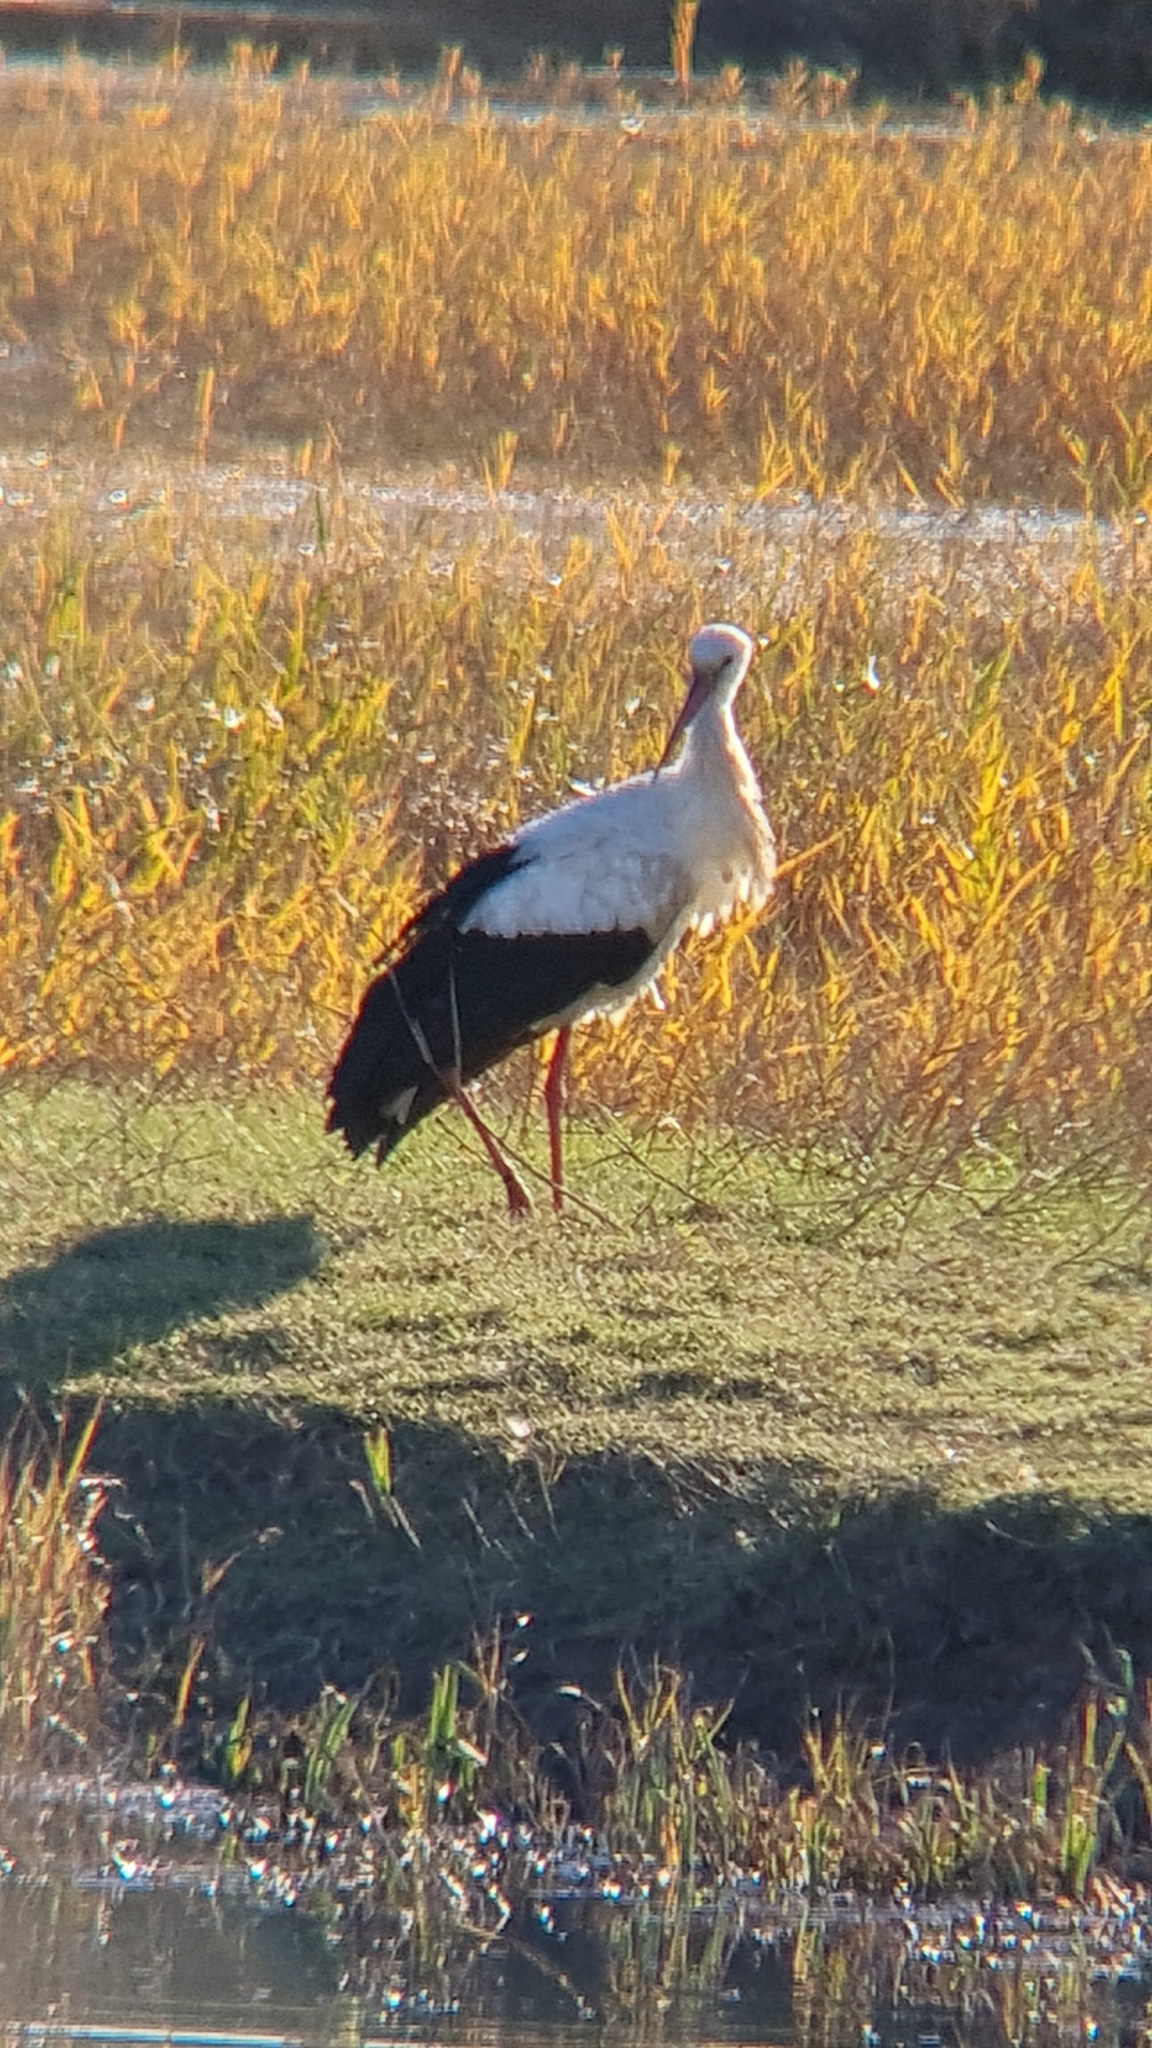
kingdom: Animalia
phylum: Chordata
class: Aves
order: Ciconiiformes
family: Ciconiidae
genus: Ciconia
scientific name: Ciconia ciconia
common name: White stork
